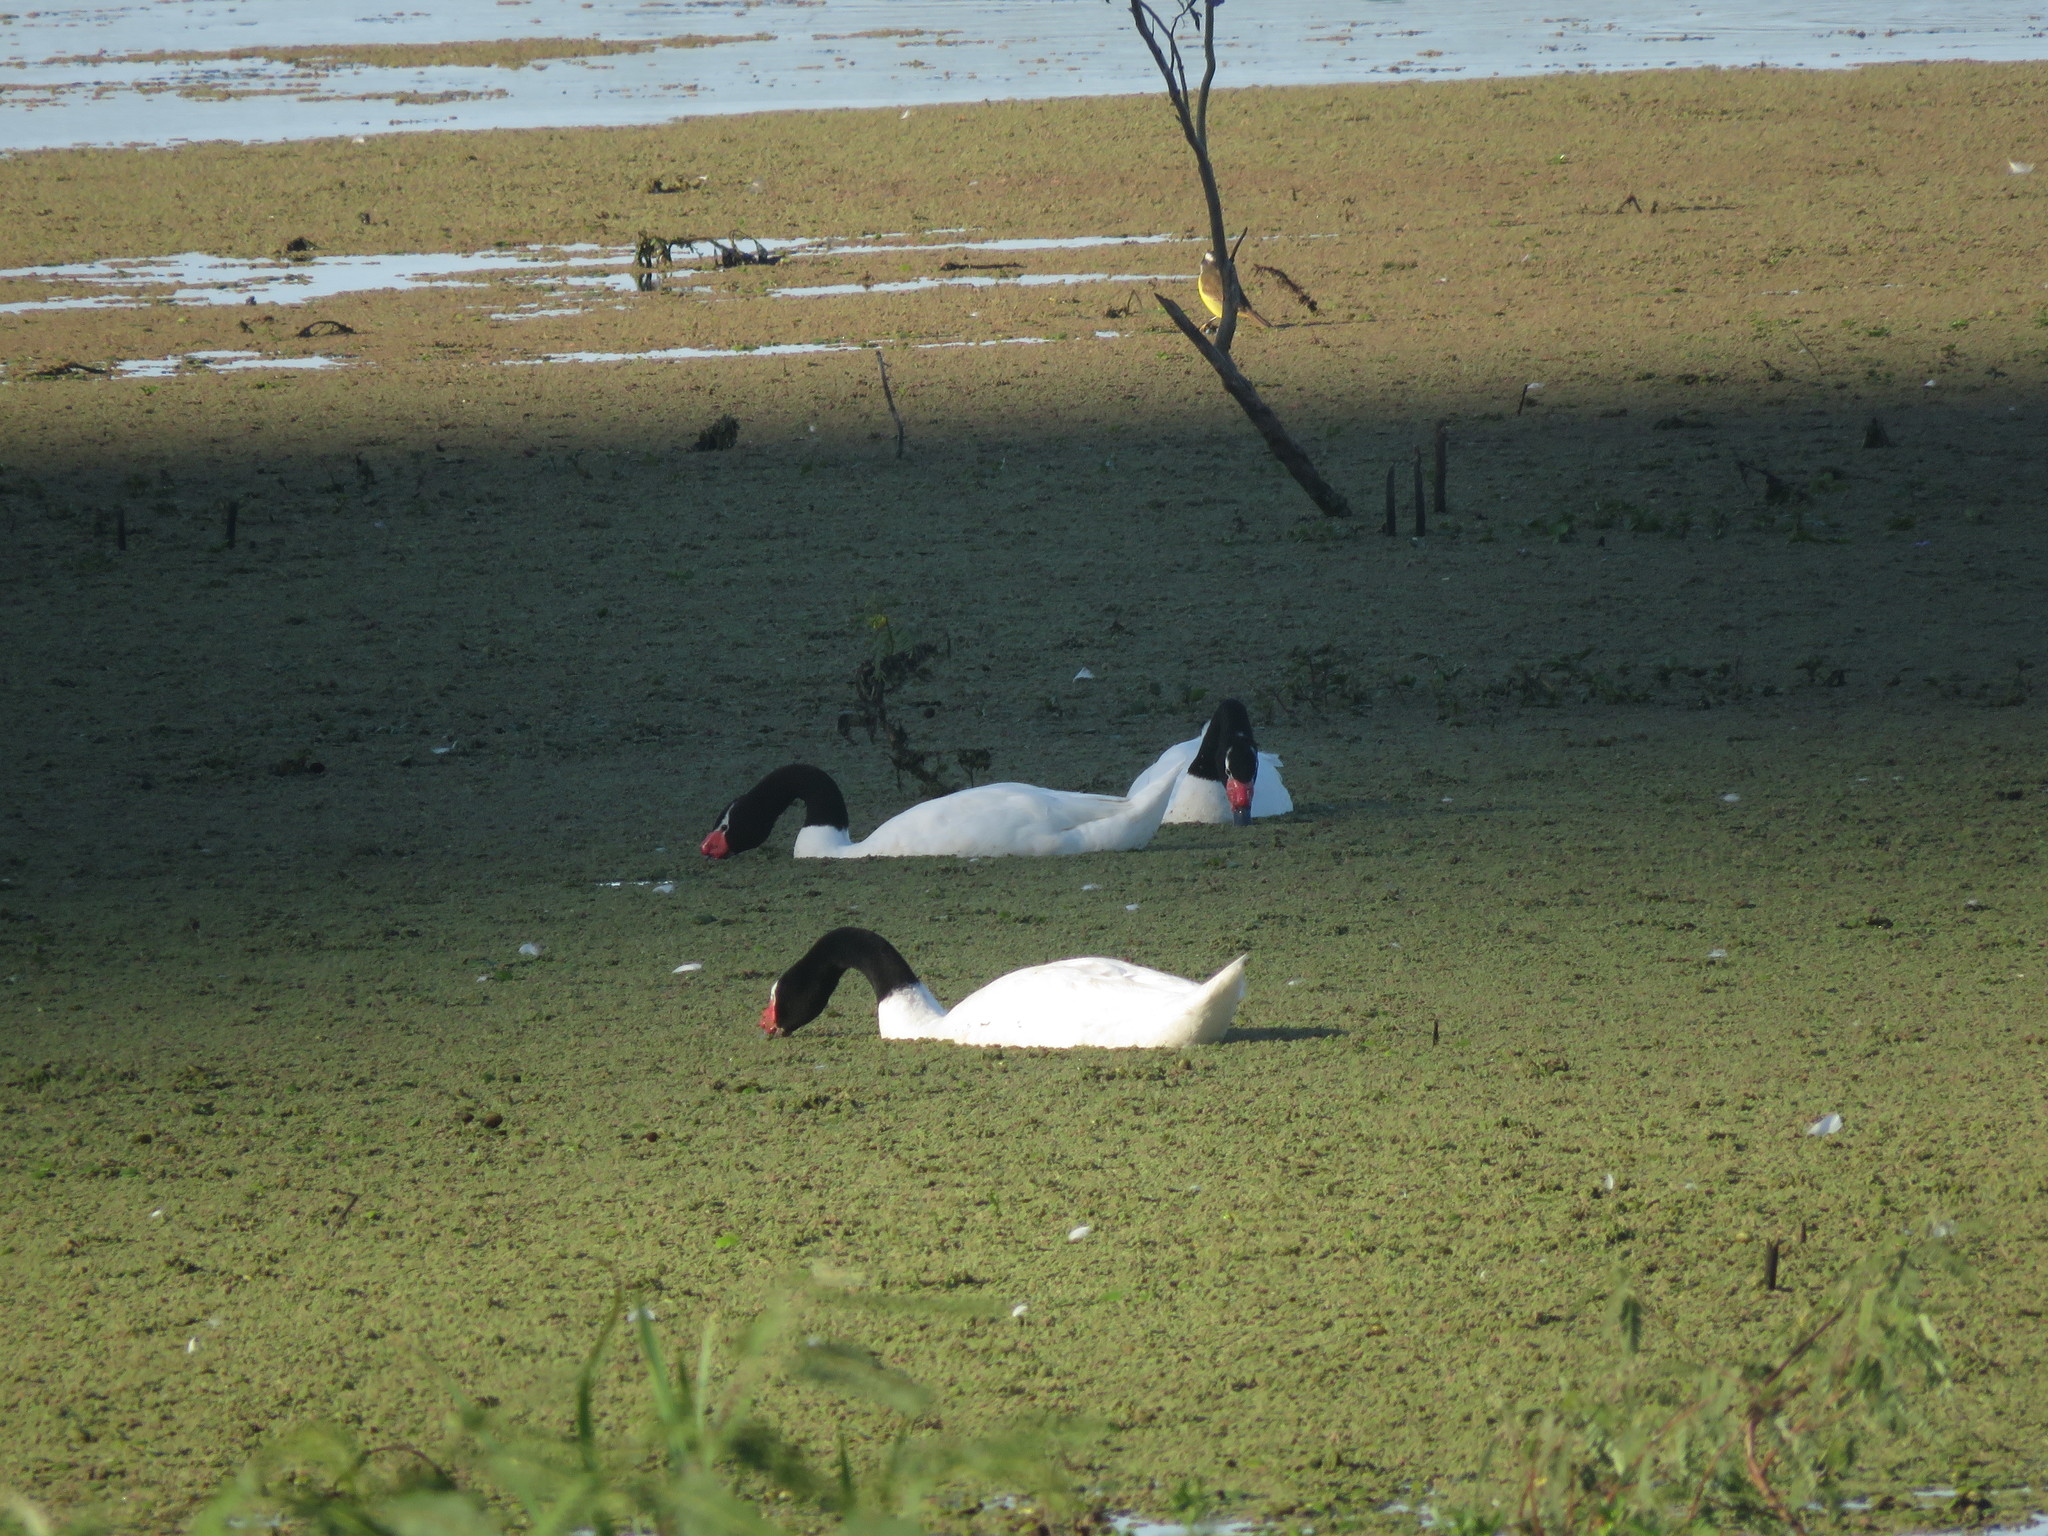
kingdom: Animalia
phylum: Chordata
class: Aves
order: Anseriformes
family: Anatidae
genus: Cygnus
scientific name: Cygnus melancoryphus
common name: Black-necked swan
